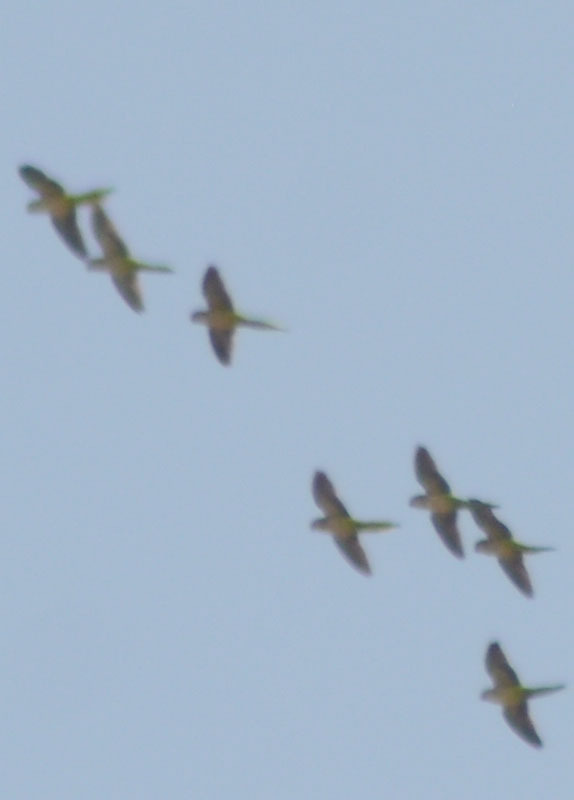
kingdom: Animalia
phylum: Chordata
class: Aves
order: Psittaciformes
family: Psittacidae
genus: Myiopsitta
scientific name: Myiopsitta monachus
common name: Monk parakeet
